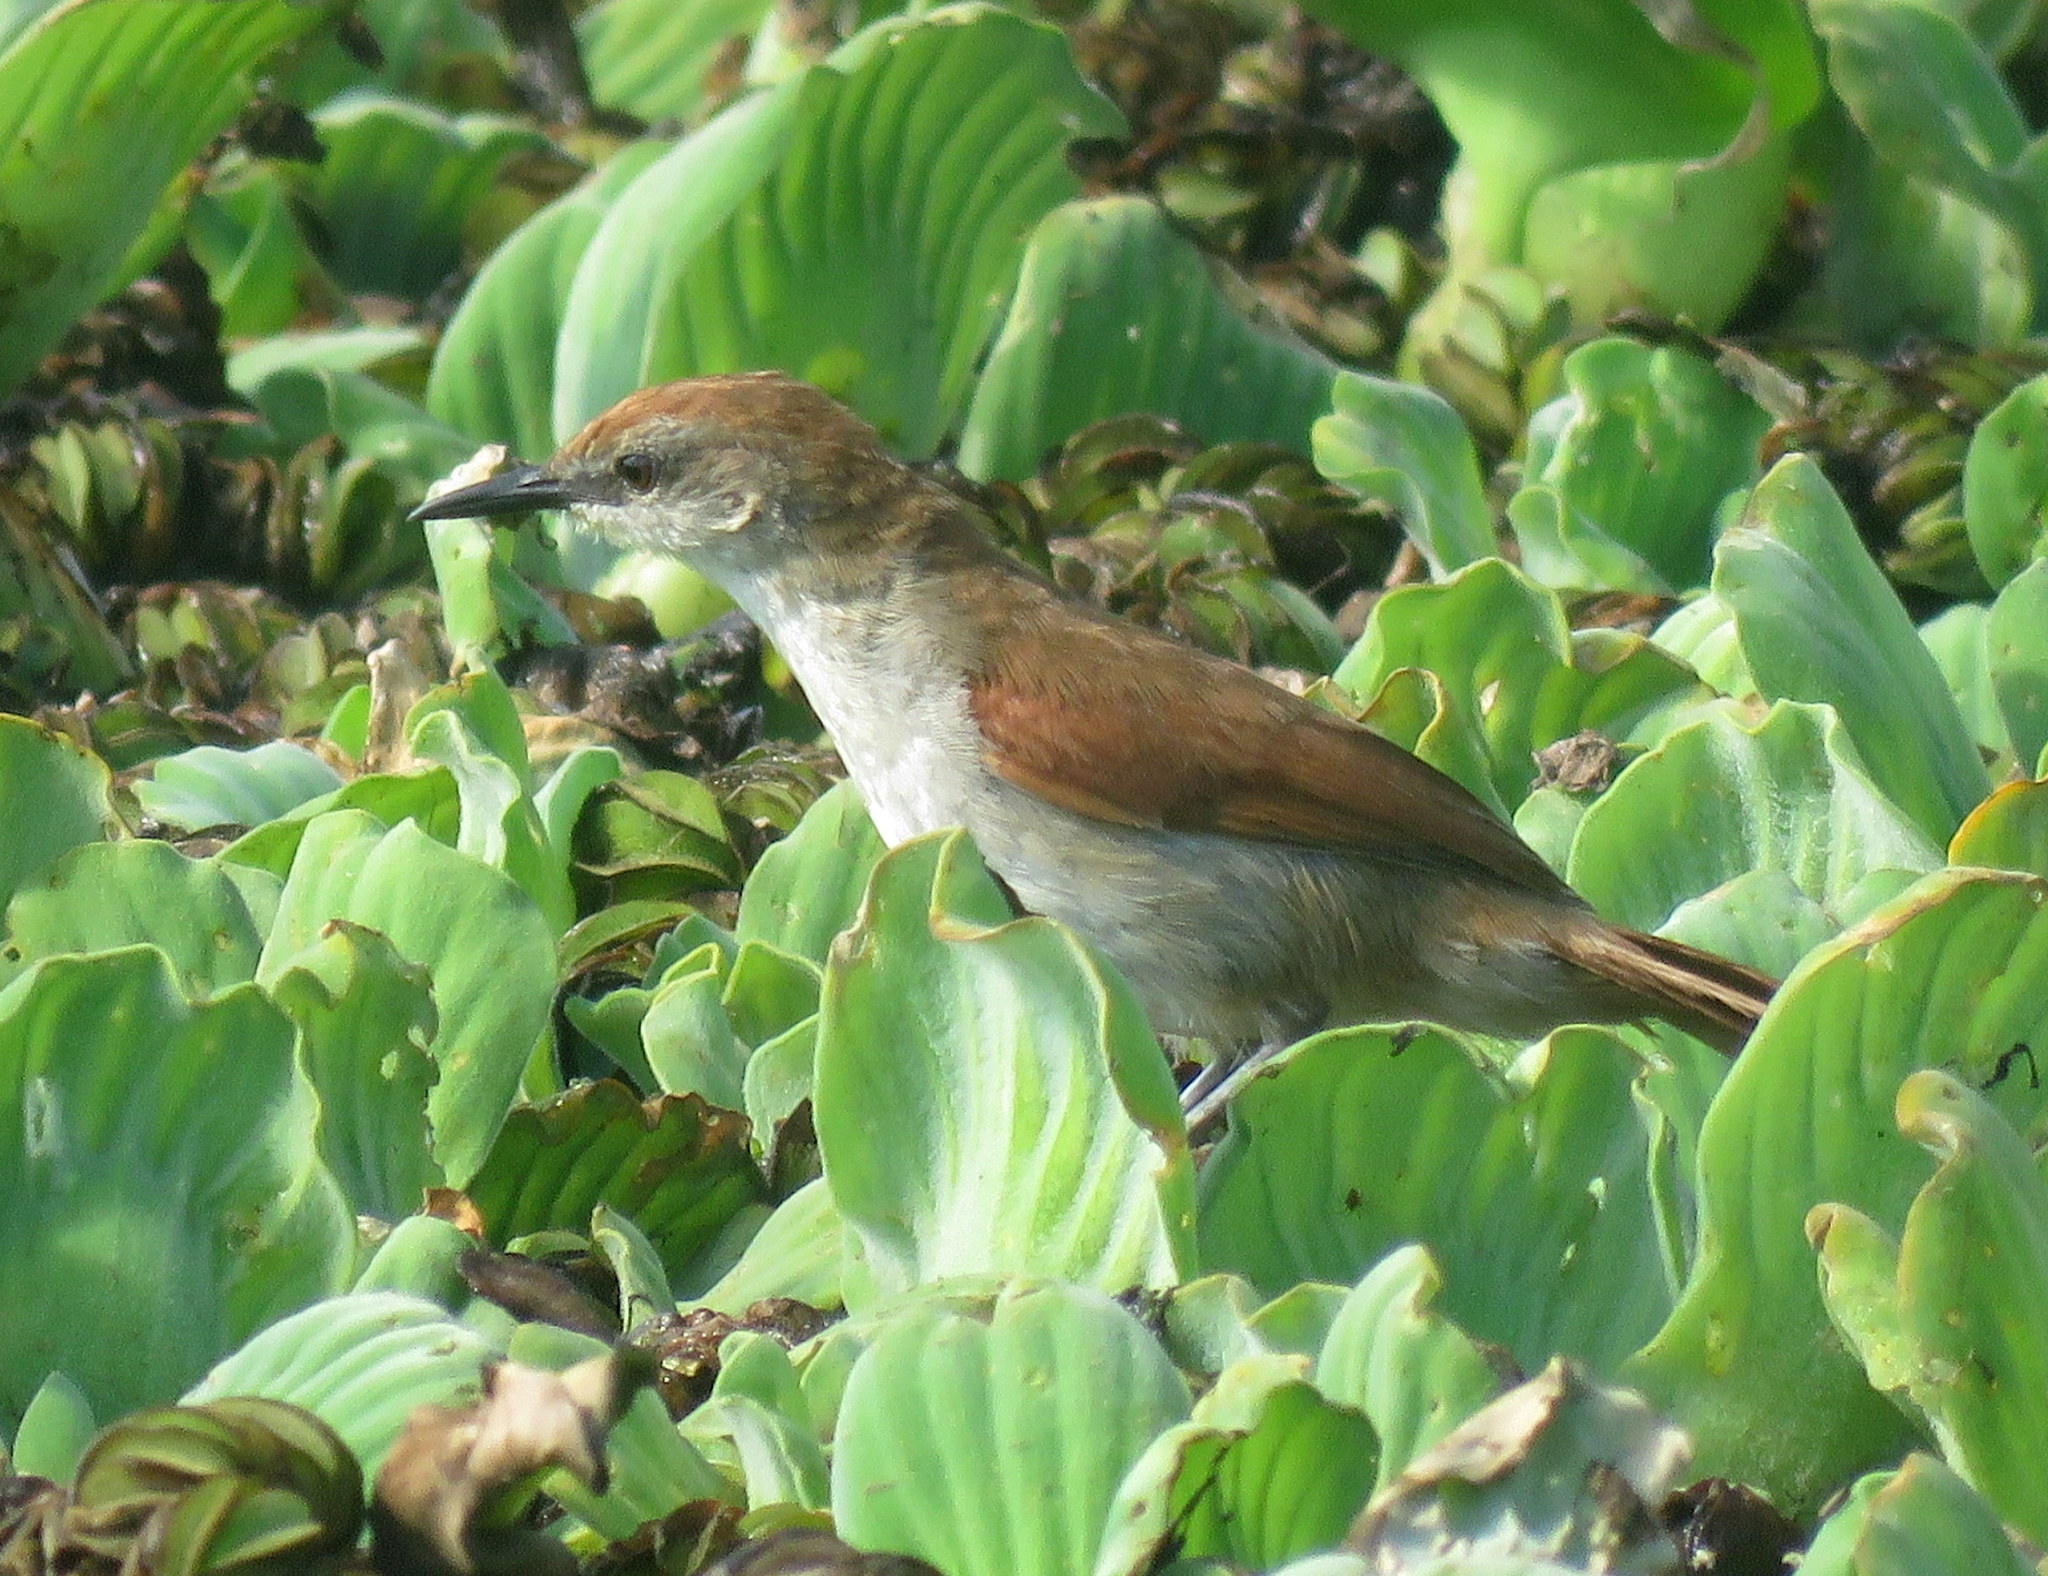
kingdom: Animalia
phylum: Chordata
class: Aves
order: Passeriformes
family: Furnariidae
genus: Certhiaxis
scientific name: Certhiaxis cinnamomeus
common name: Yellow-chinned spinetail
